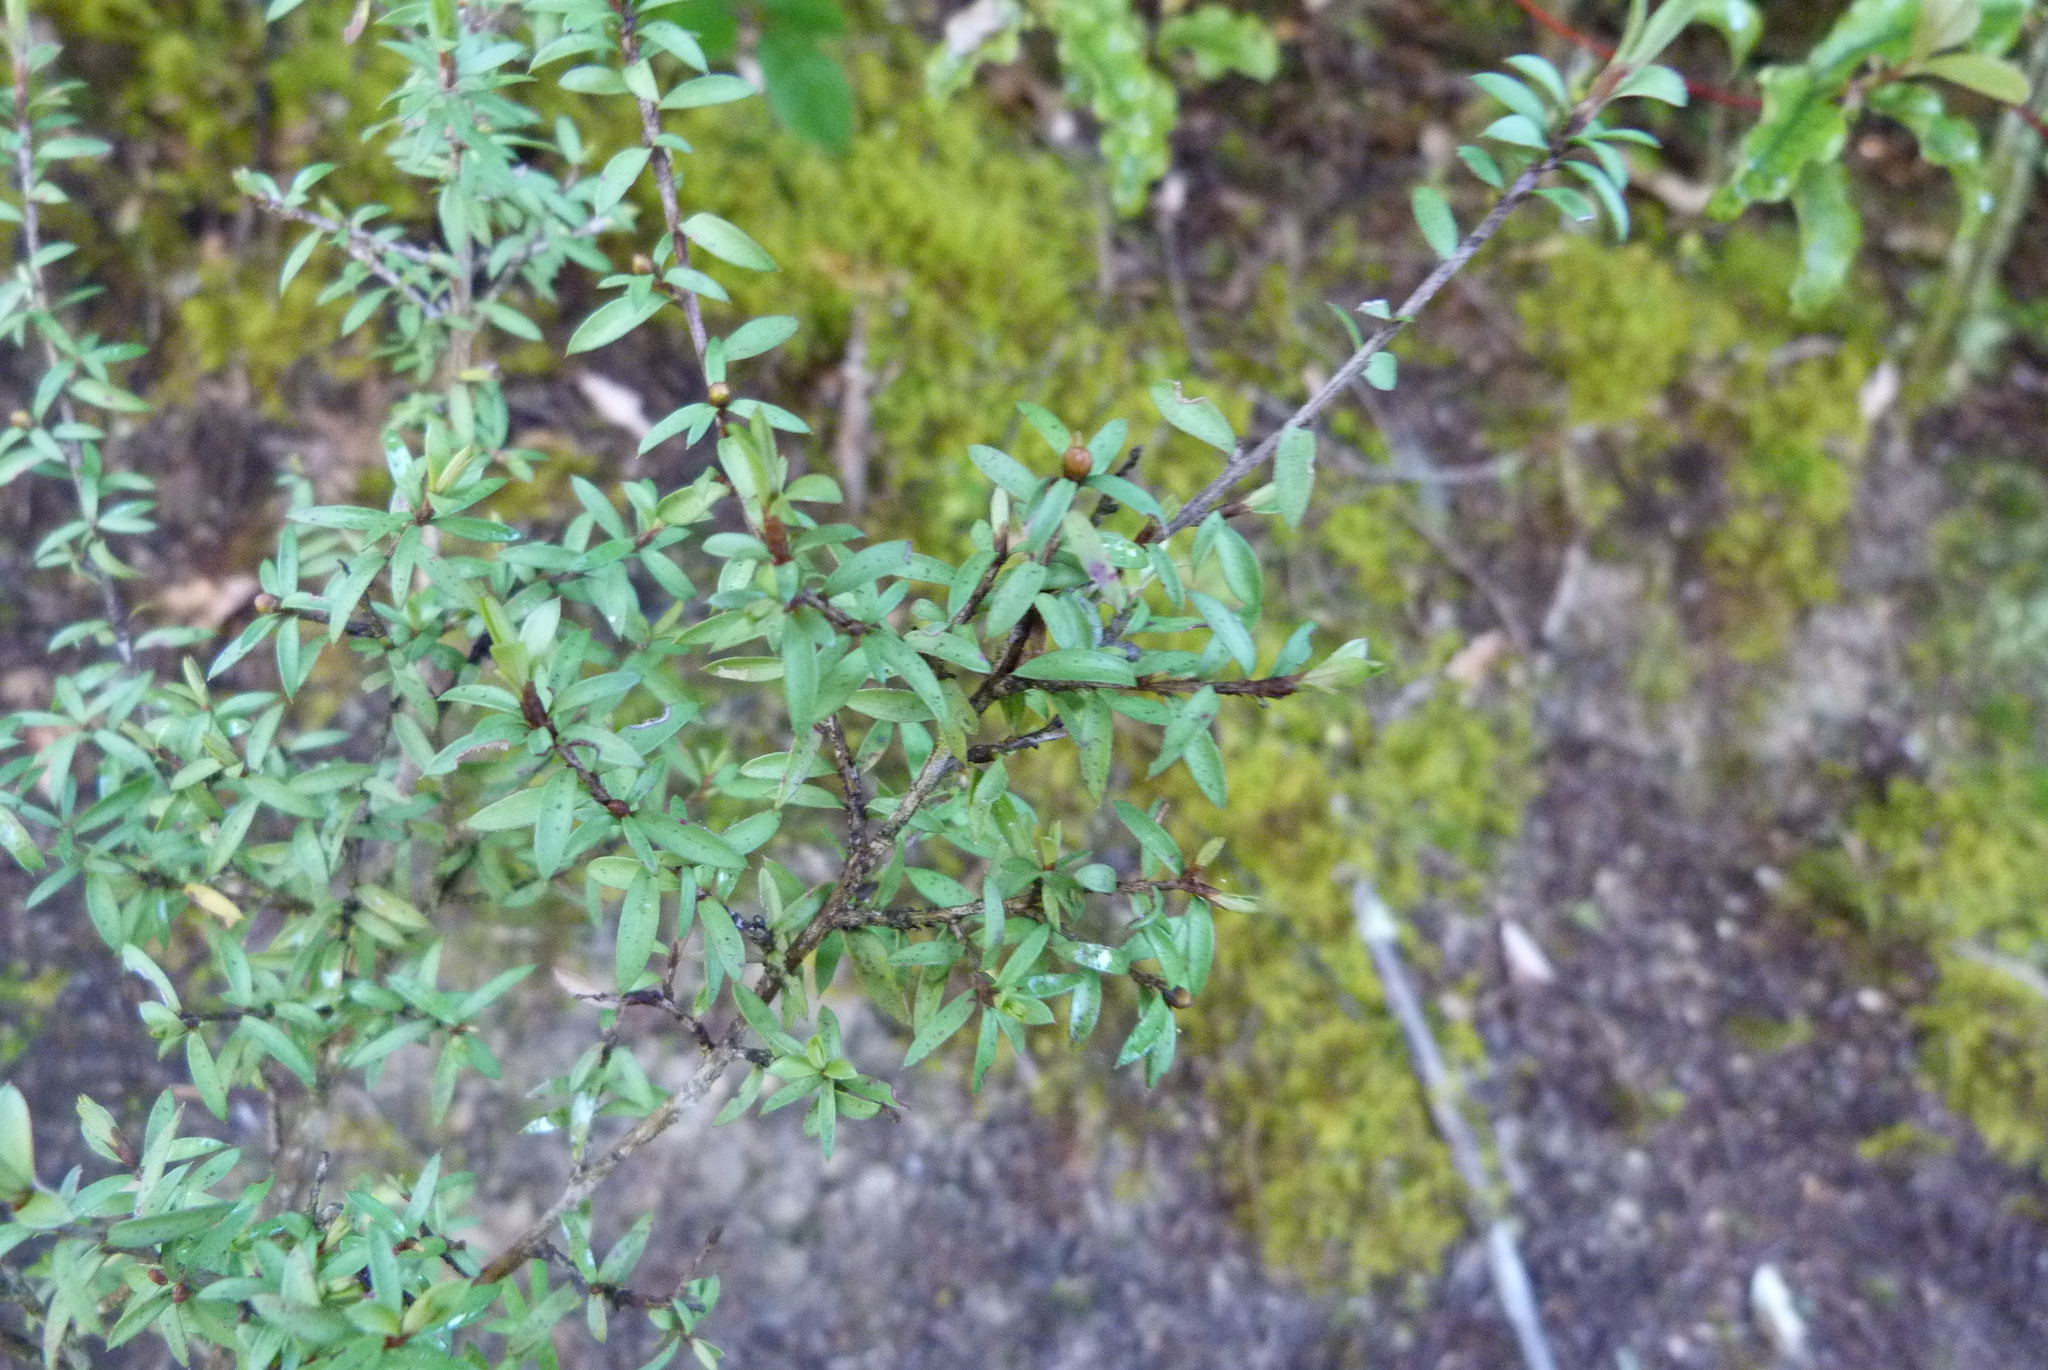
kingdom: Plantae
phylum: Tracheophyta
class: Magnoliopsida
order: Myrtales
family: Myrtaceae
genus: Leptospermum
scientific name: Leptospermum scoparium
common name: Broom tea-tree
